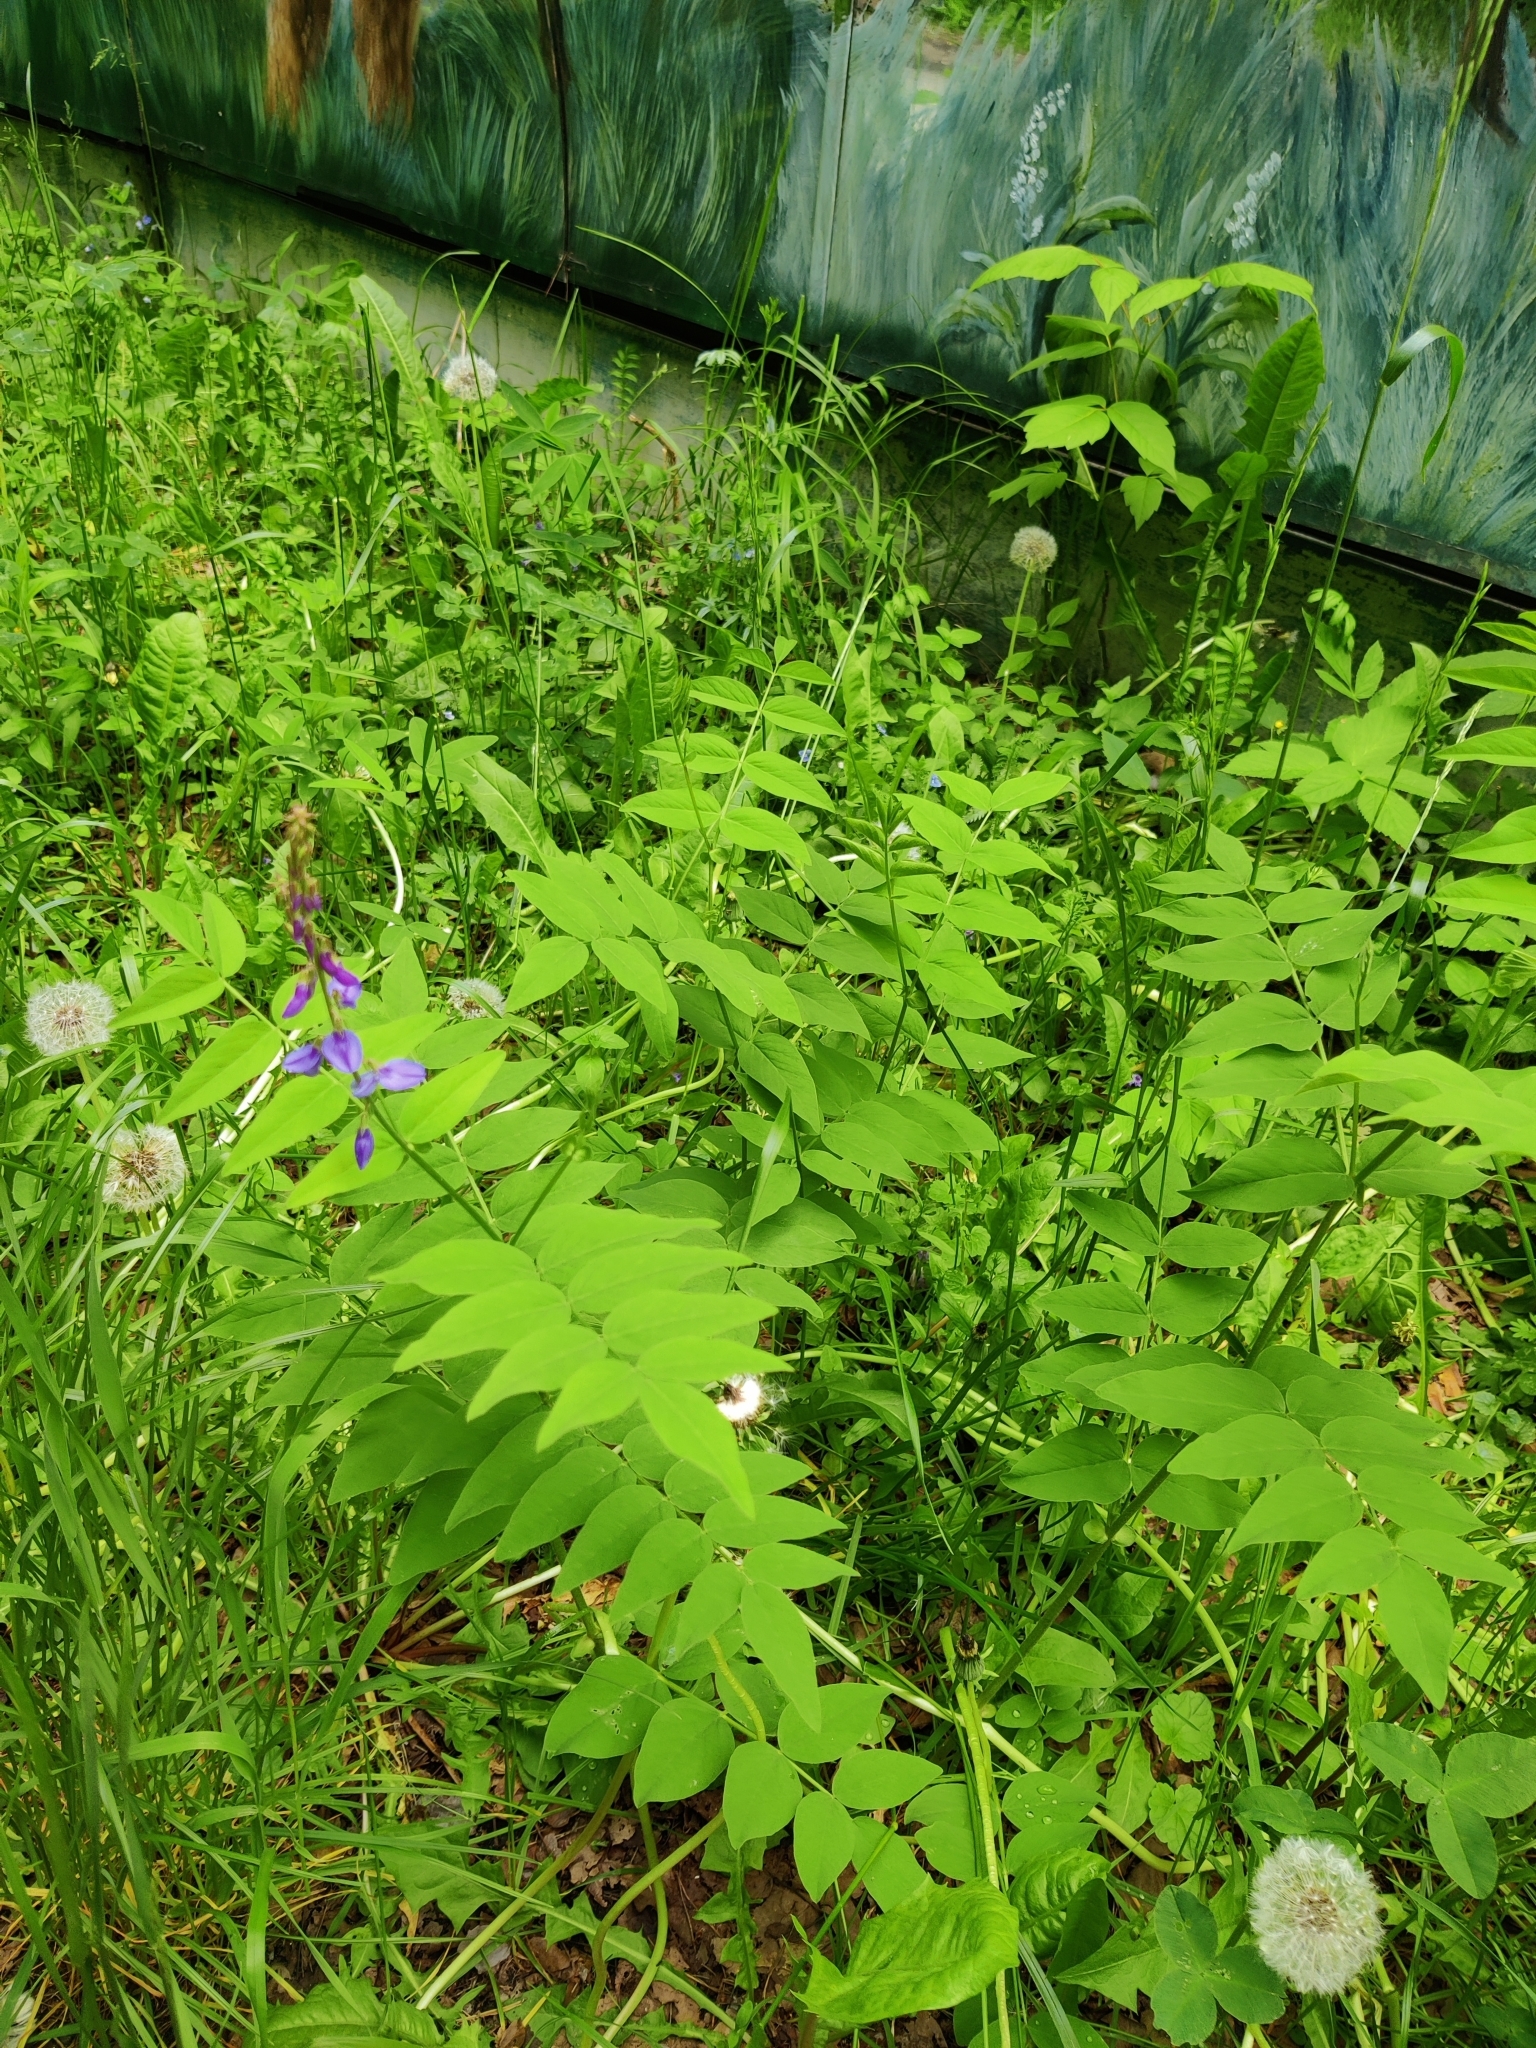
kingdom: Plantae
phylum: Tracheophyta
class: Magnoliopsida
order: Fabales
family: Fabaceae
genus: Galega
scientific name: Galega orientalis
